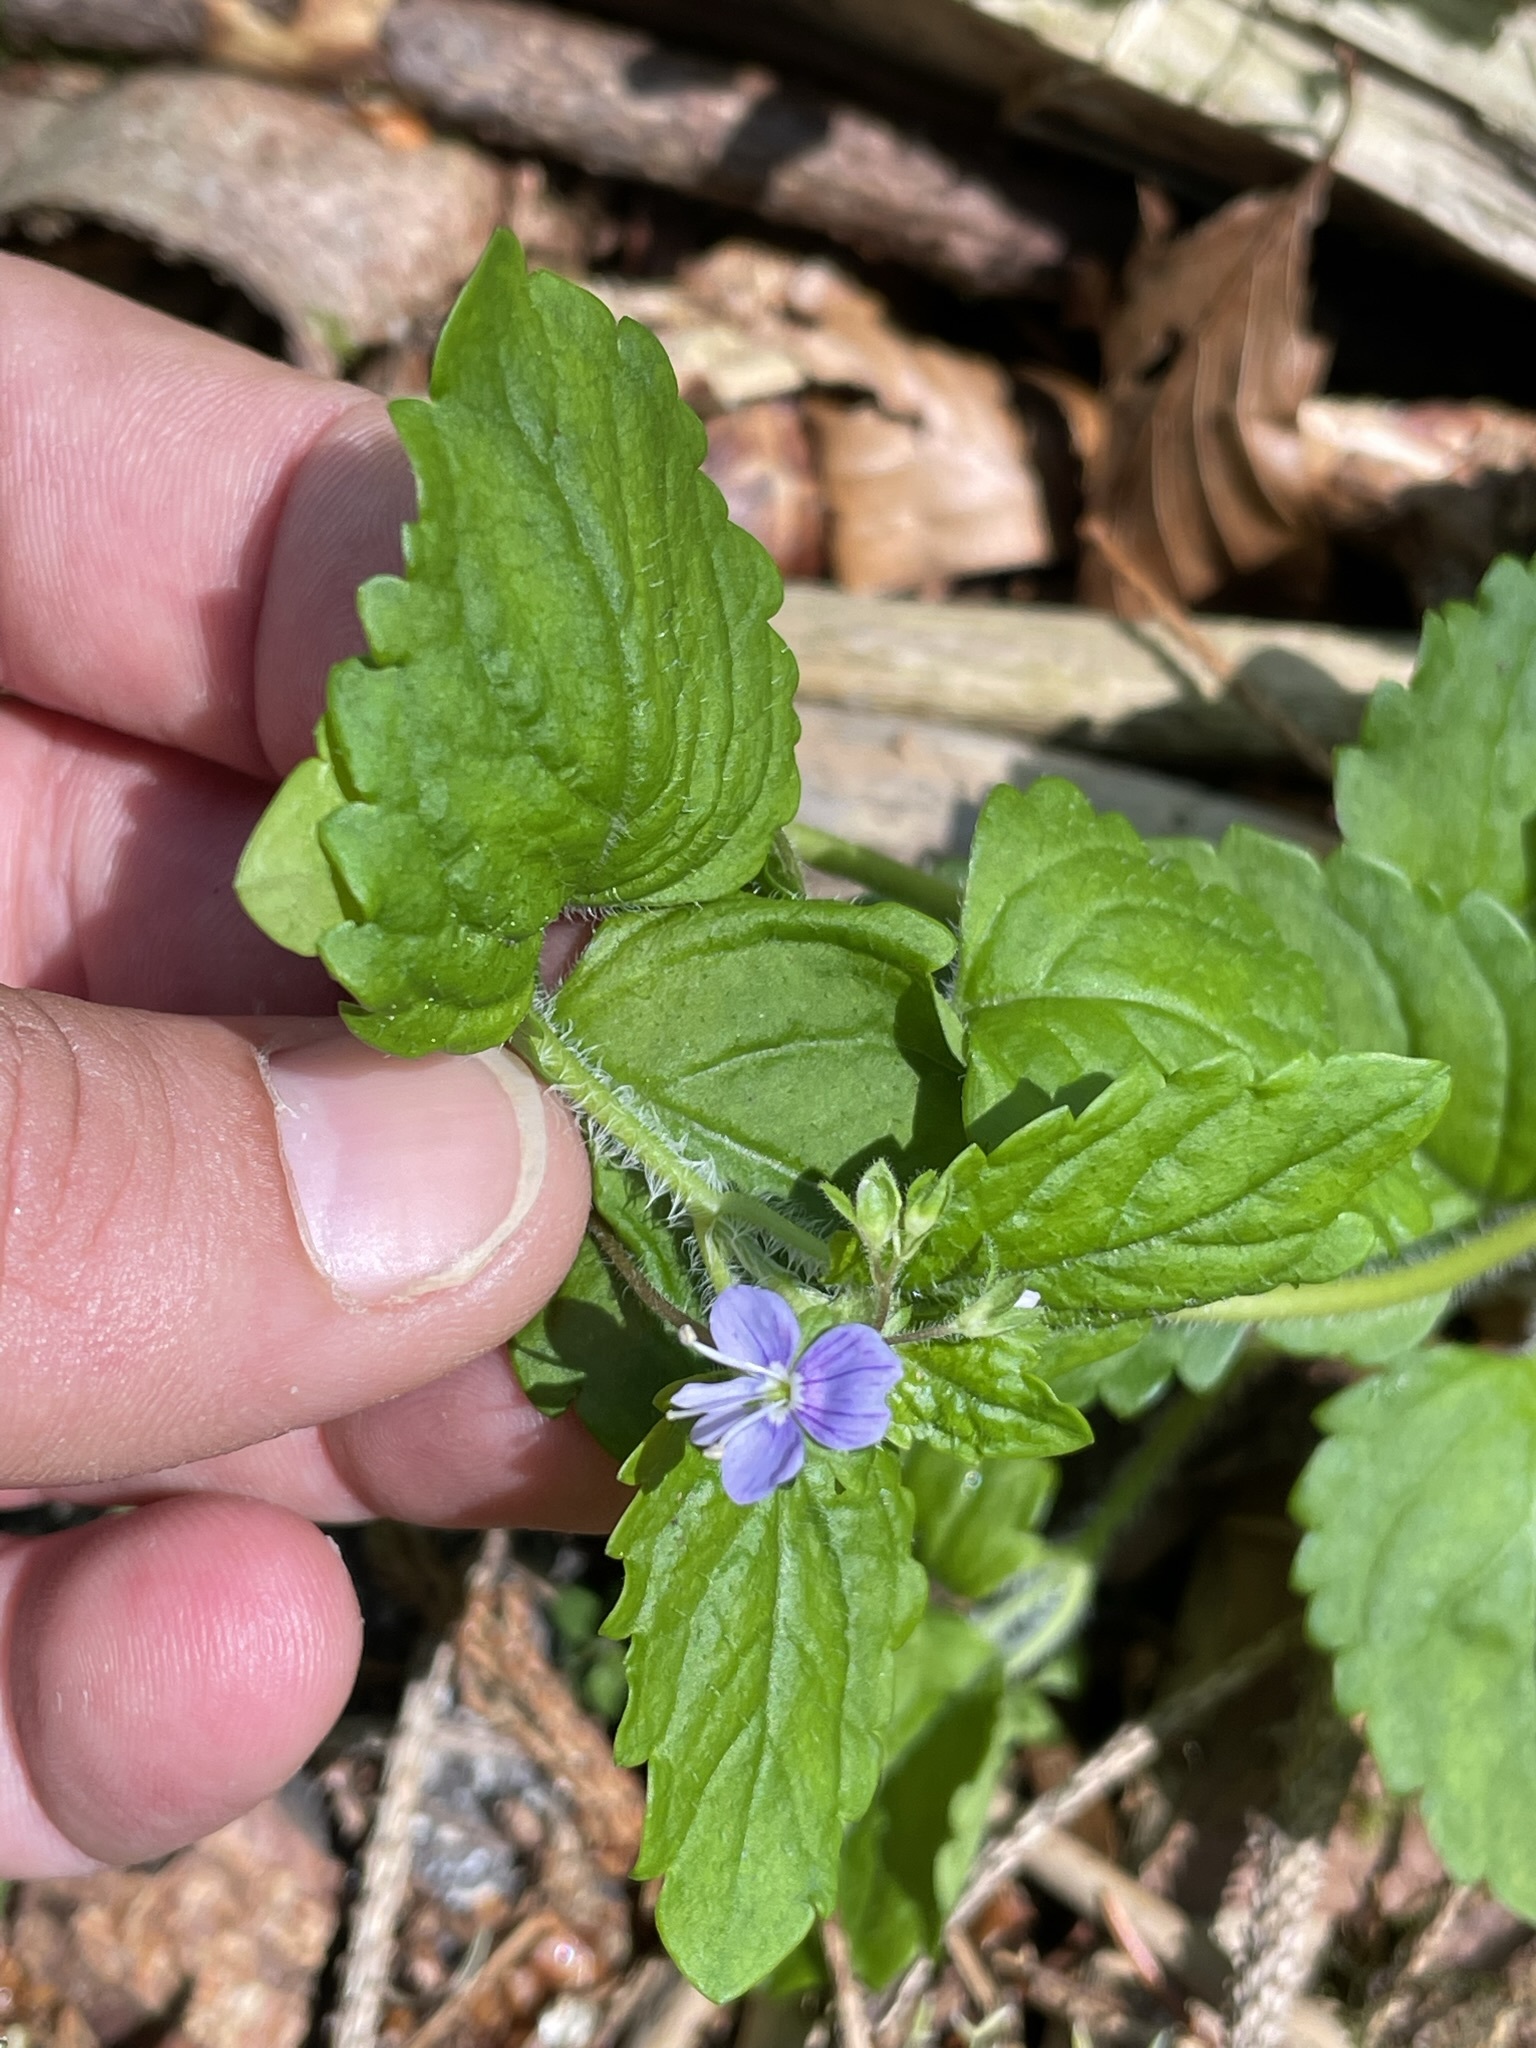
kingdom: Plantae
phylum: Tracheophyta
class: Magnoliopsida
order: Lamiales
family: Plantaginaceae
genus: Veronica
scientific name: Veronica montana
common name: Wood speedwell
